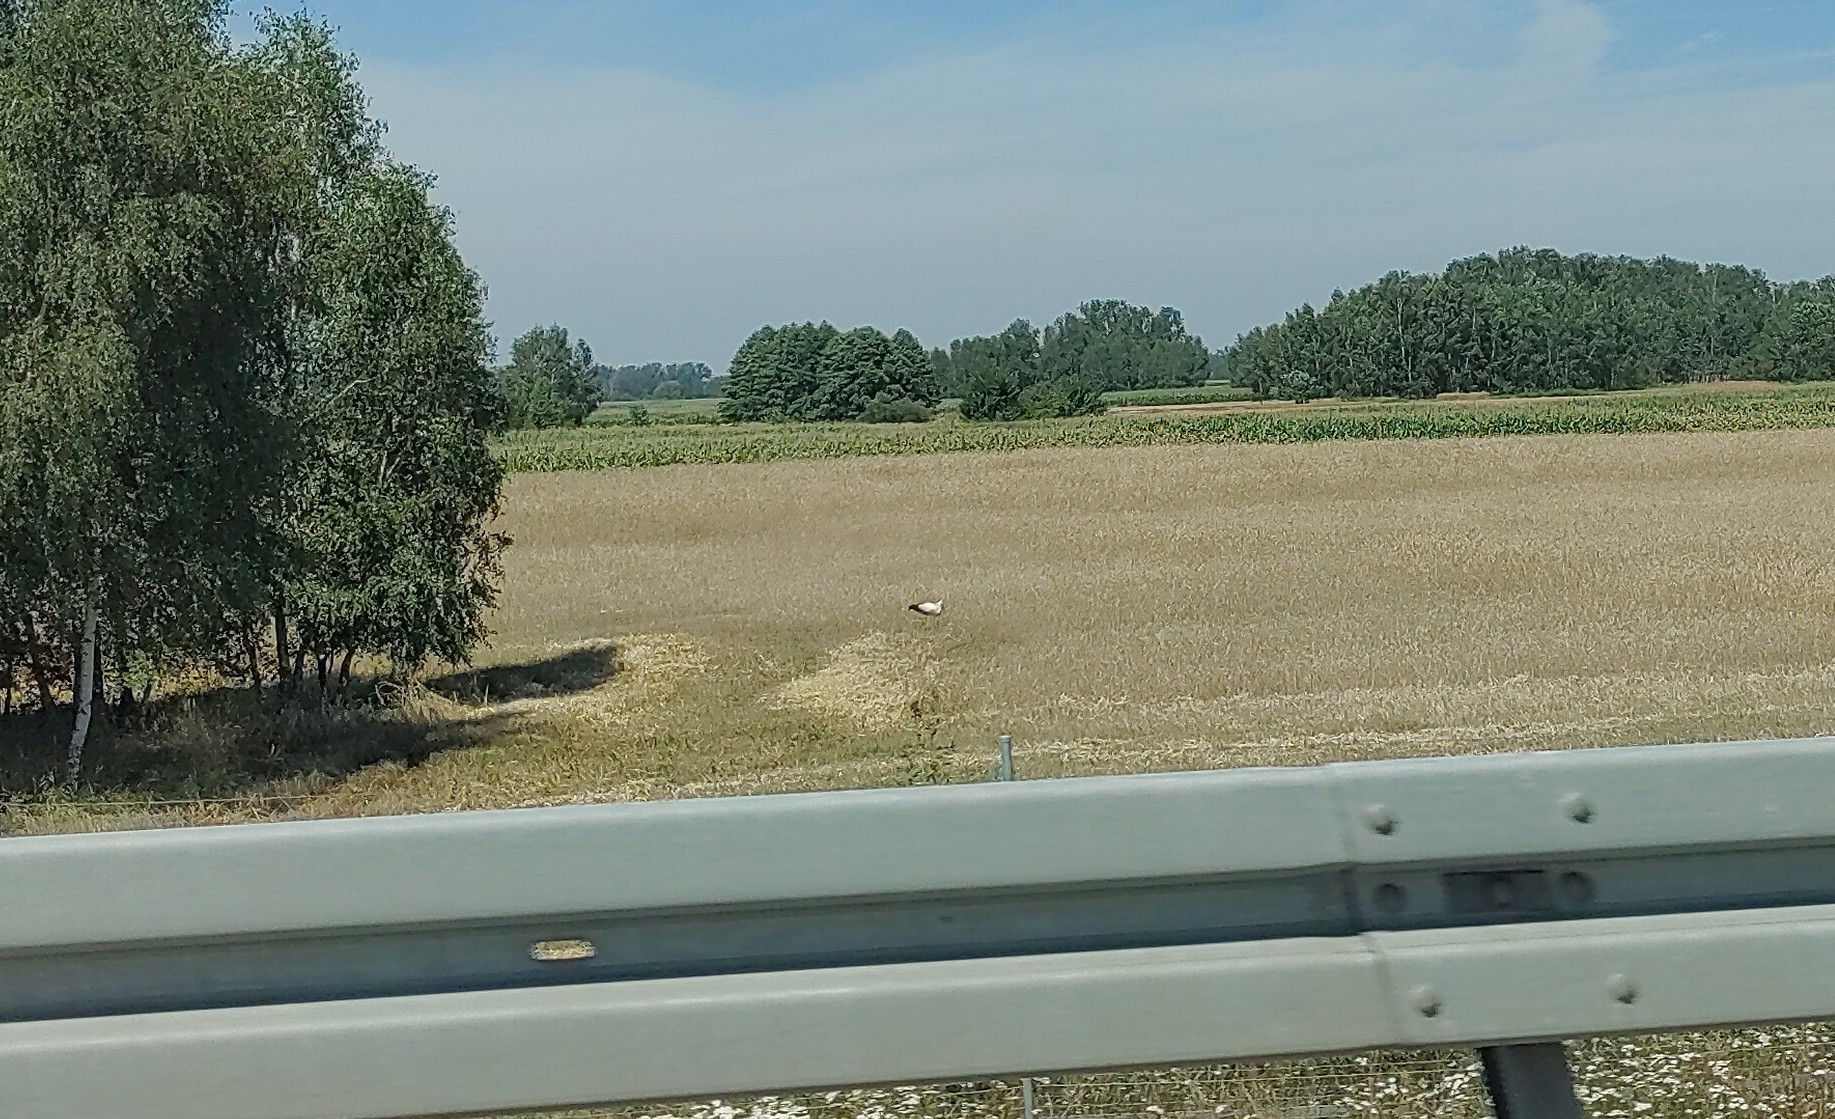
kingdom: Animalia
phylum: Chordata
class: Aves
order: Ciconiiformes
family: Ciconiidae
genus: Ciconia
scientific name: Ciconia ciconia
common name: White stork
